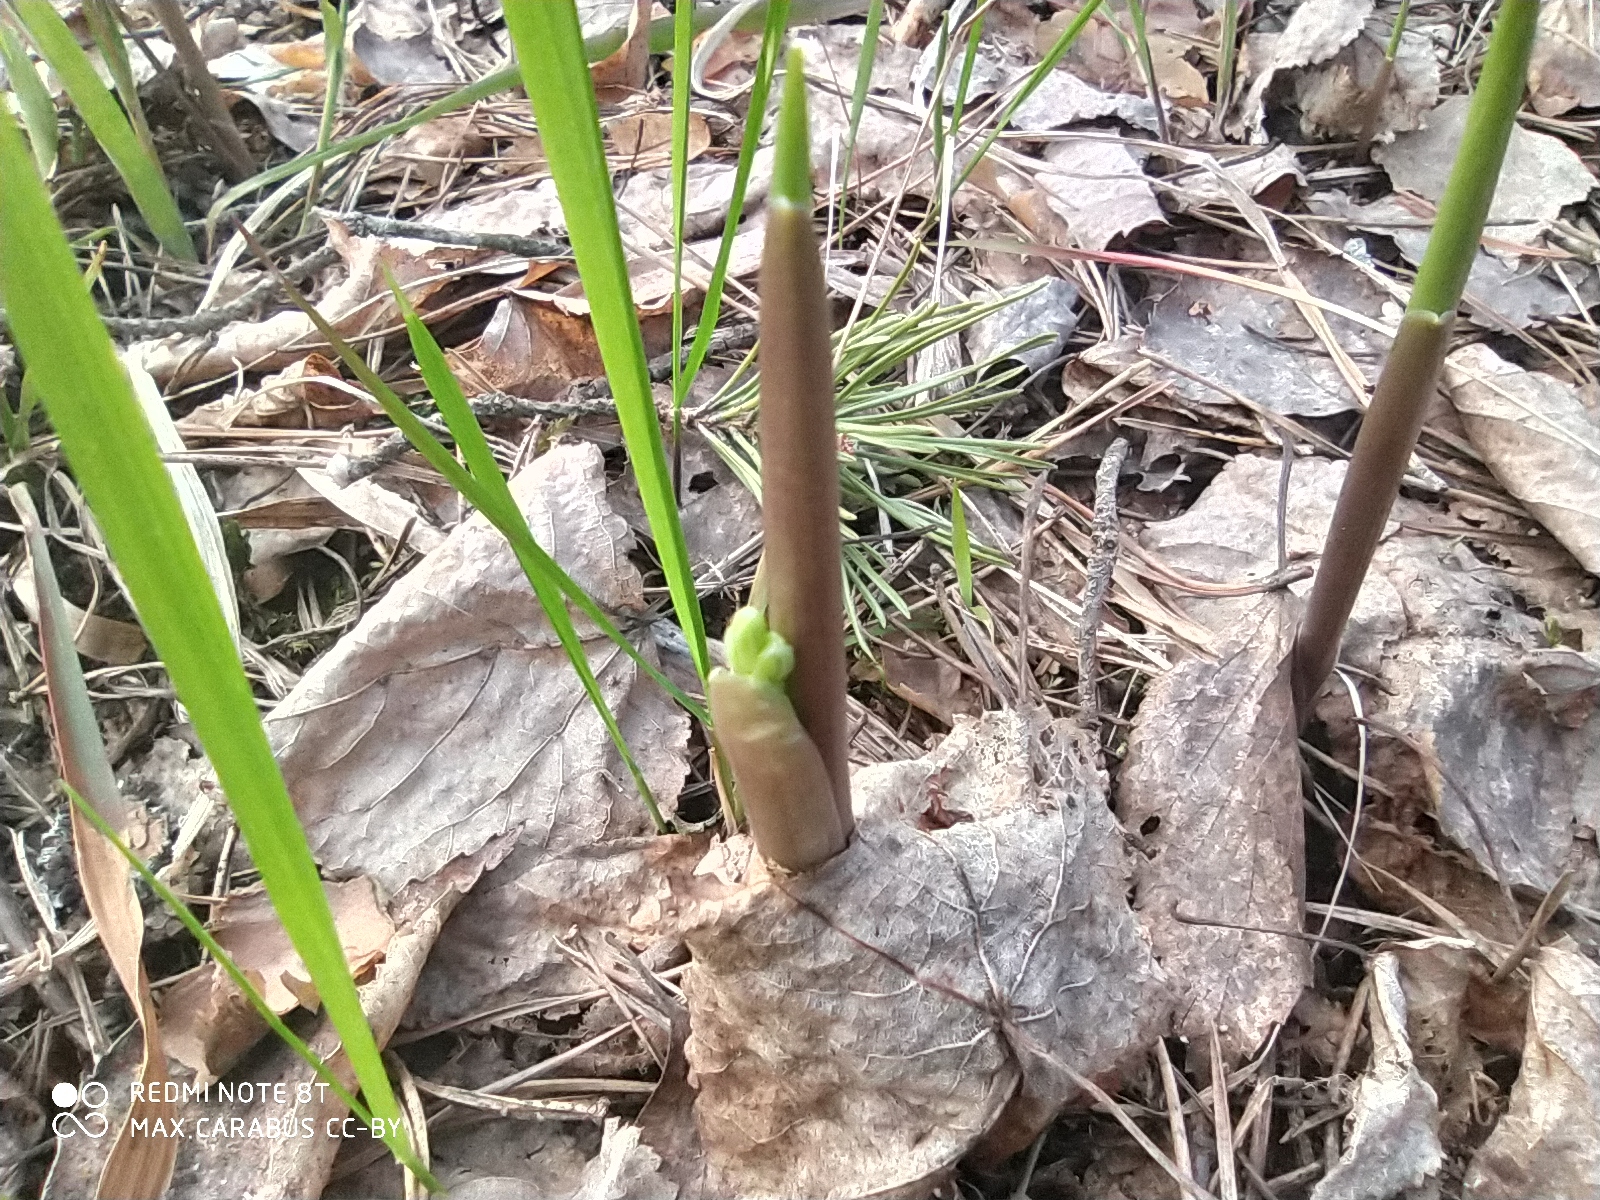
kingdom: Plantae
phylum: Tracheophyta
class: Liliopsida
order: Asparagales
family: Asparagaceae
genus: Convallaria
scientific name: Convallaria majalis
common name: Lily-of-the-valley
